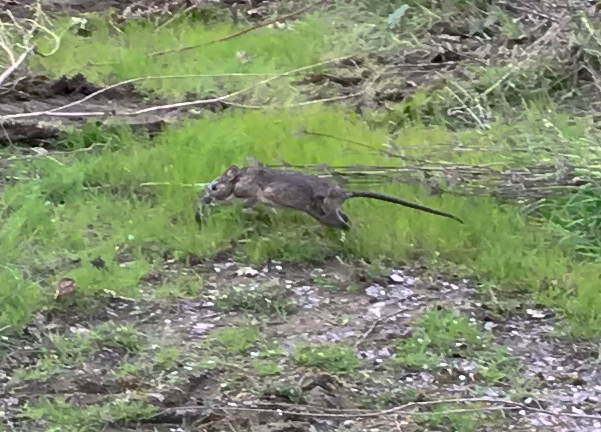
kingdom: Animalia
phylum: Chordata
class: Mammalia
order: Rodentia
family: Cricetidae
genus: Neotoma
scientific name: Neotoma fuscipes
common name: Dusky-footed woodrat
